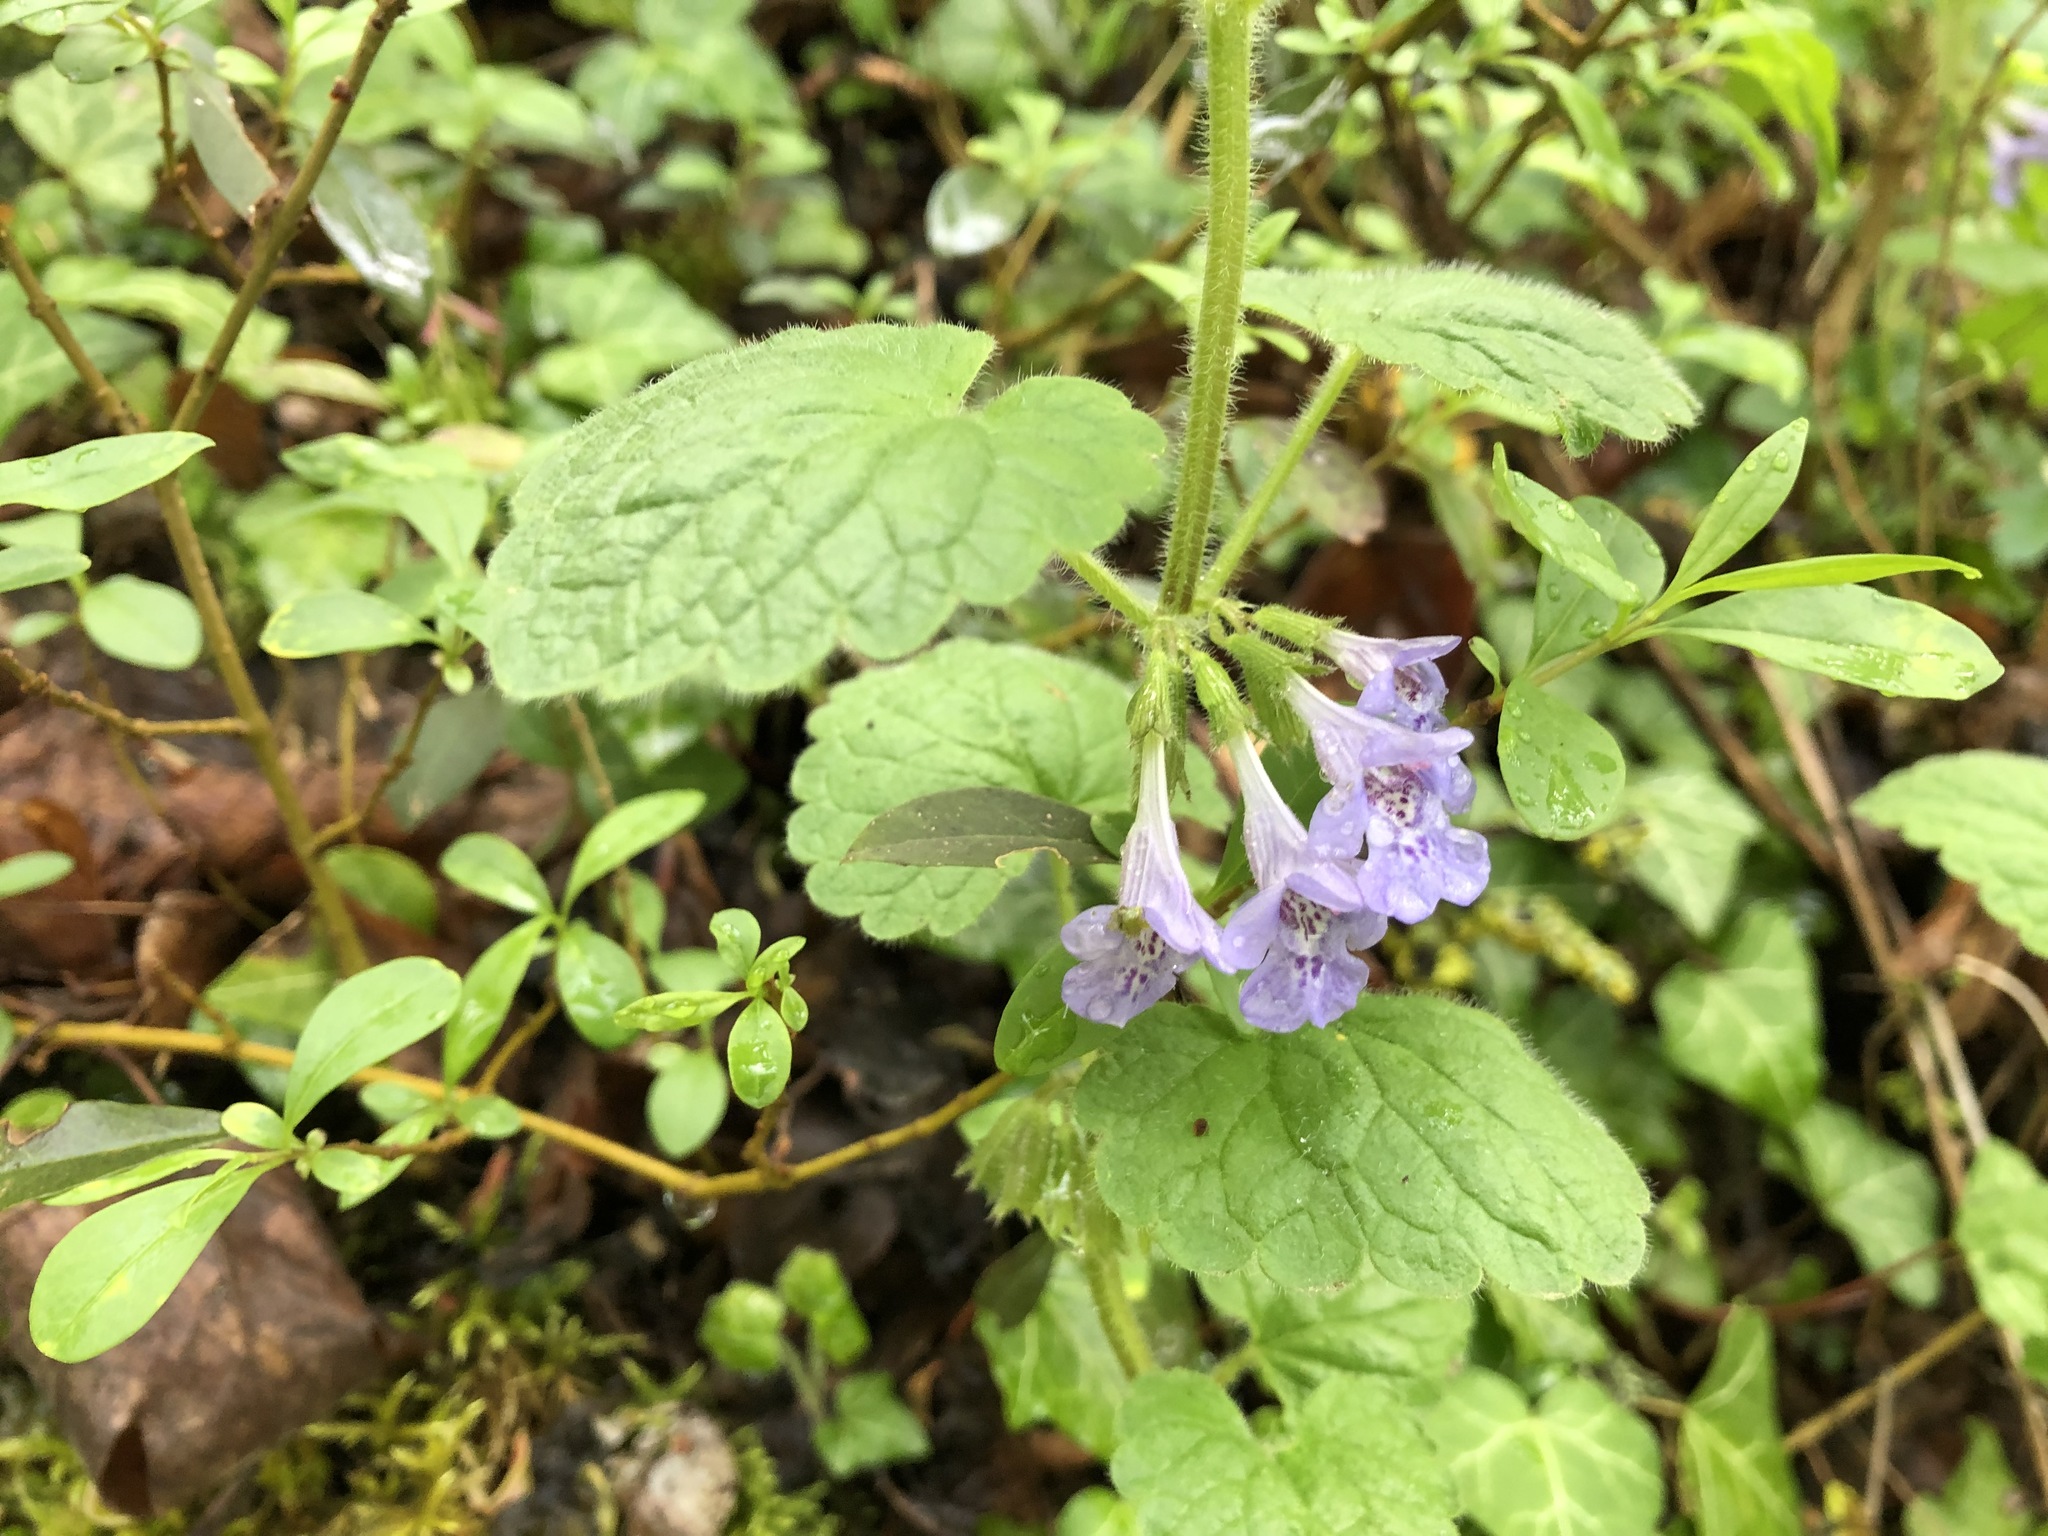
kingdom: Plantae
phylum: Tracheophyta
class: Magnoliopsida
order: Lamiales
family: Lamiaceae
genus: Glechoma
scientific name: Glechoma hederacea
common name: Ground ivy
